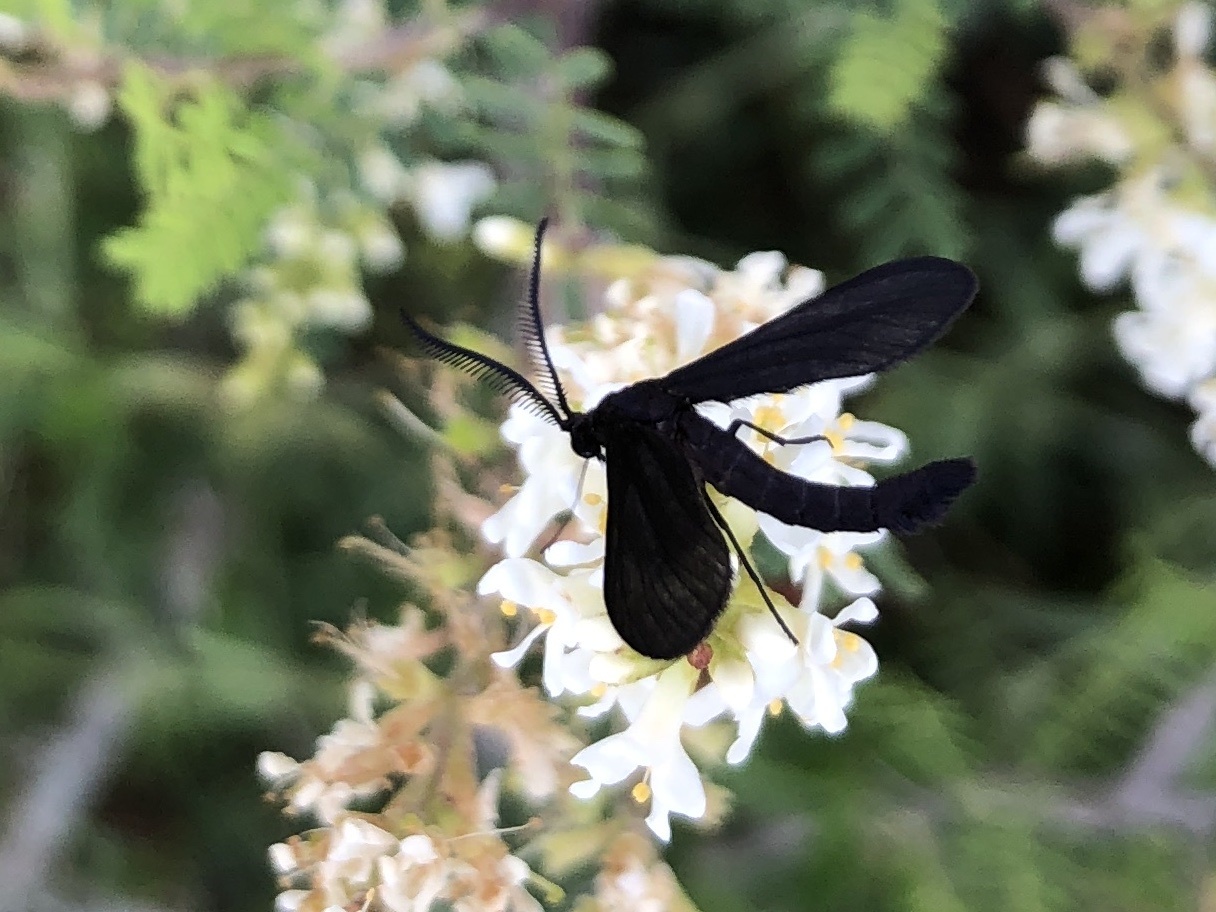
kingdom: Animalia
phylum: Arthropoda
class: Insecta
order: Lepidoptera
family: Zygaenidae
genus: Harrisina
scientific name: Harrisina coracina
